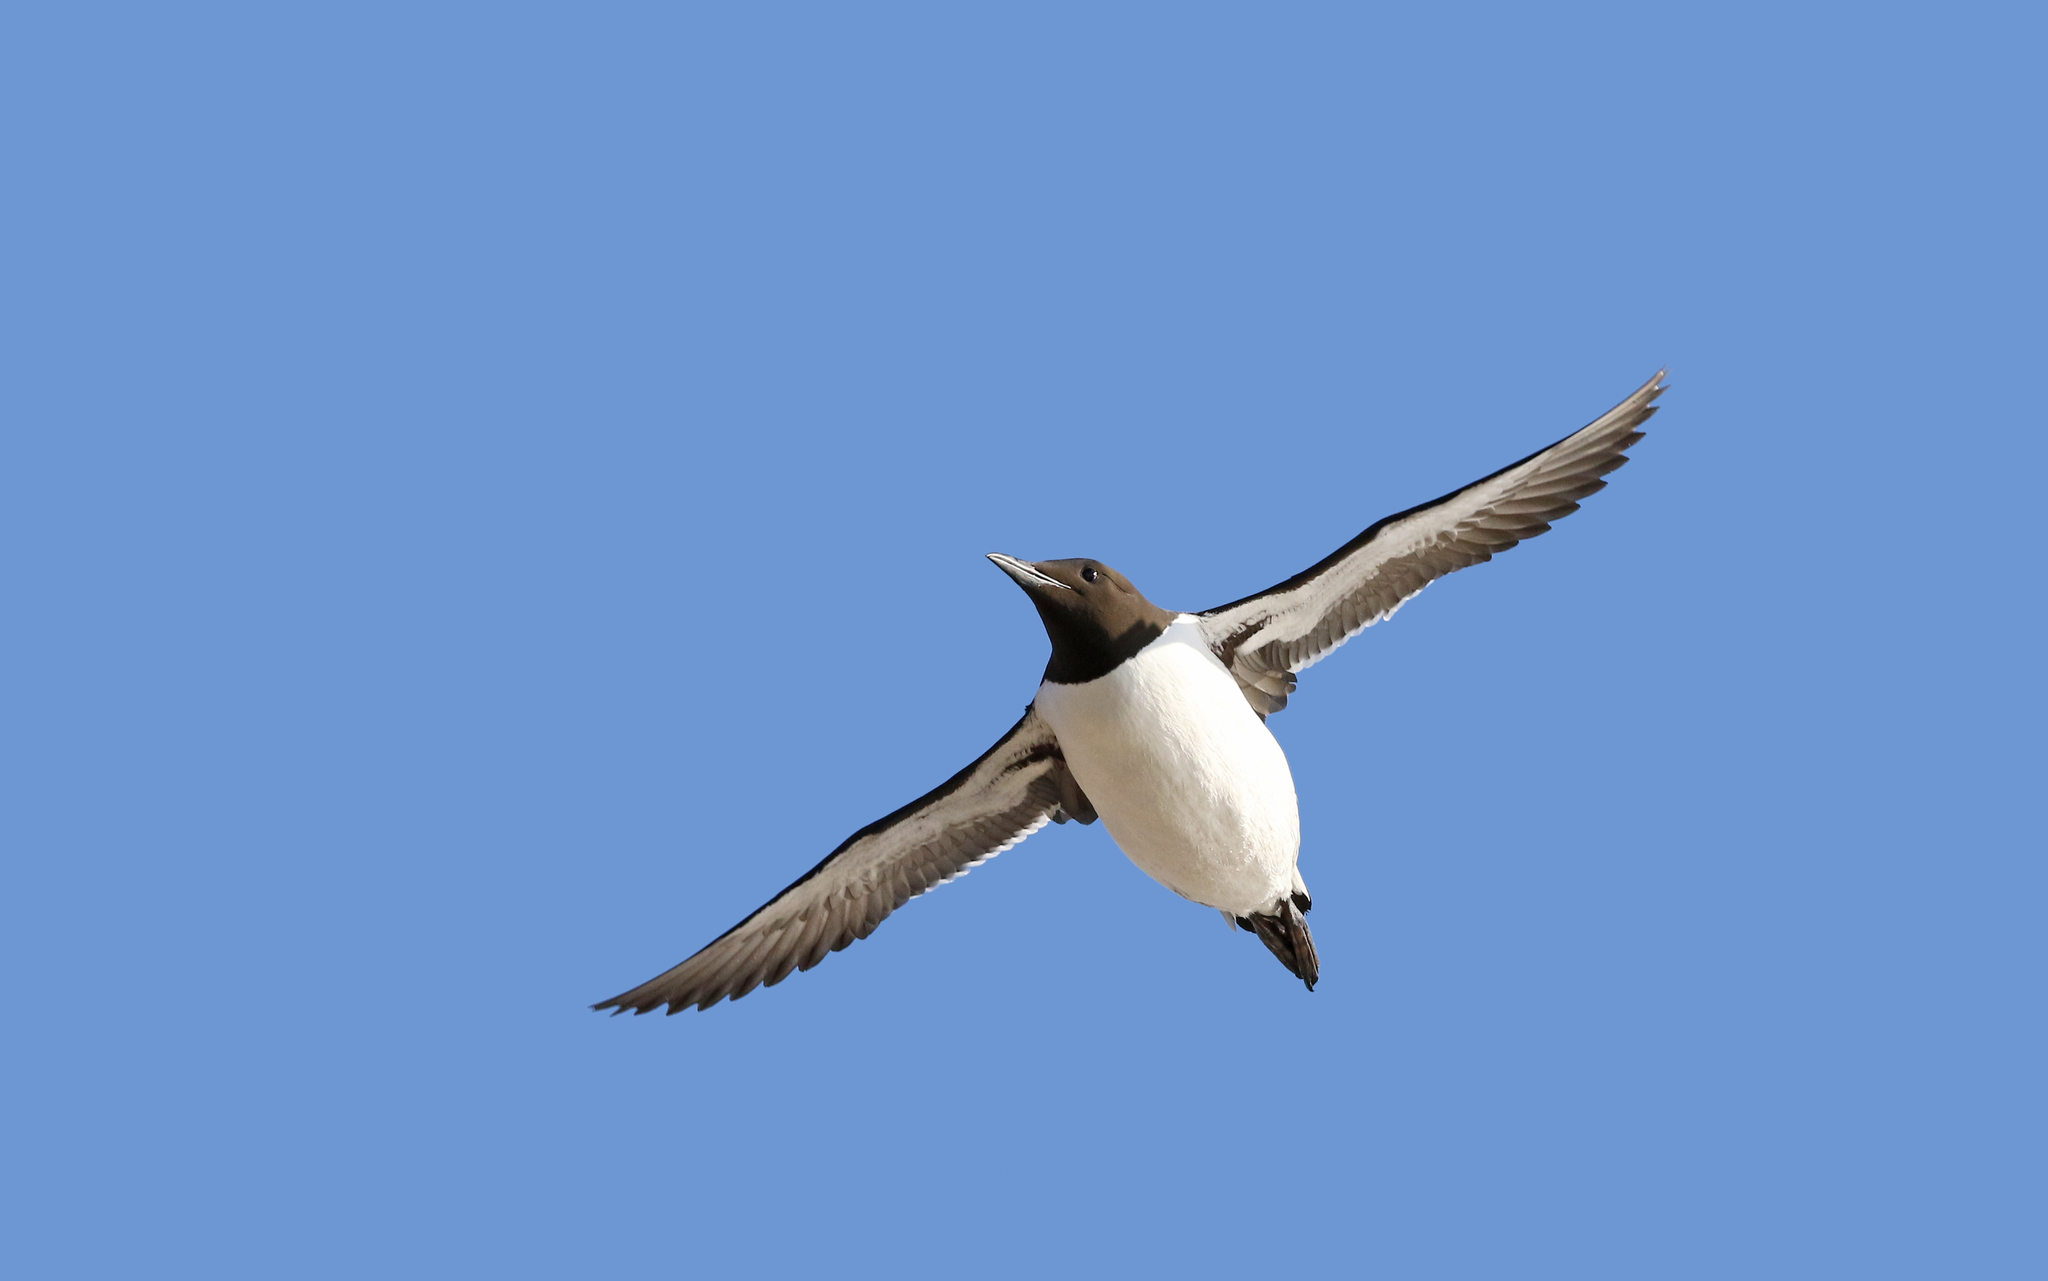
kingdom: Animalia
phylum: Chordata
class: Aves
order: Charadriiformes
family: Alcidae
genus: Uria
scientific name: Uria aalge
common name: Common murre
